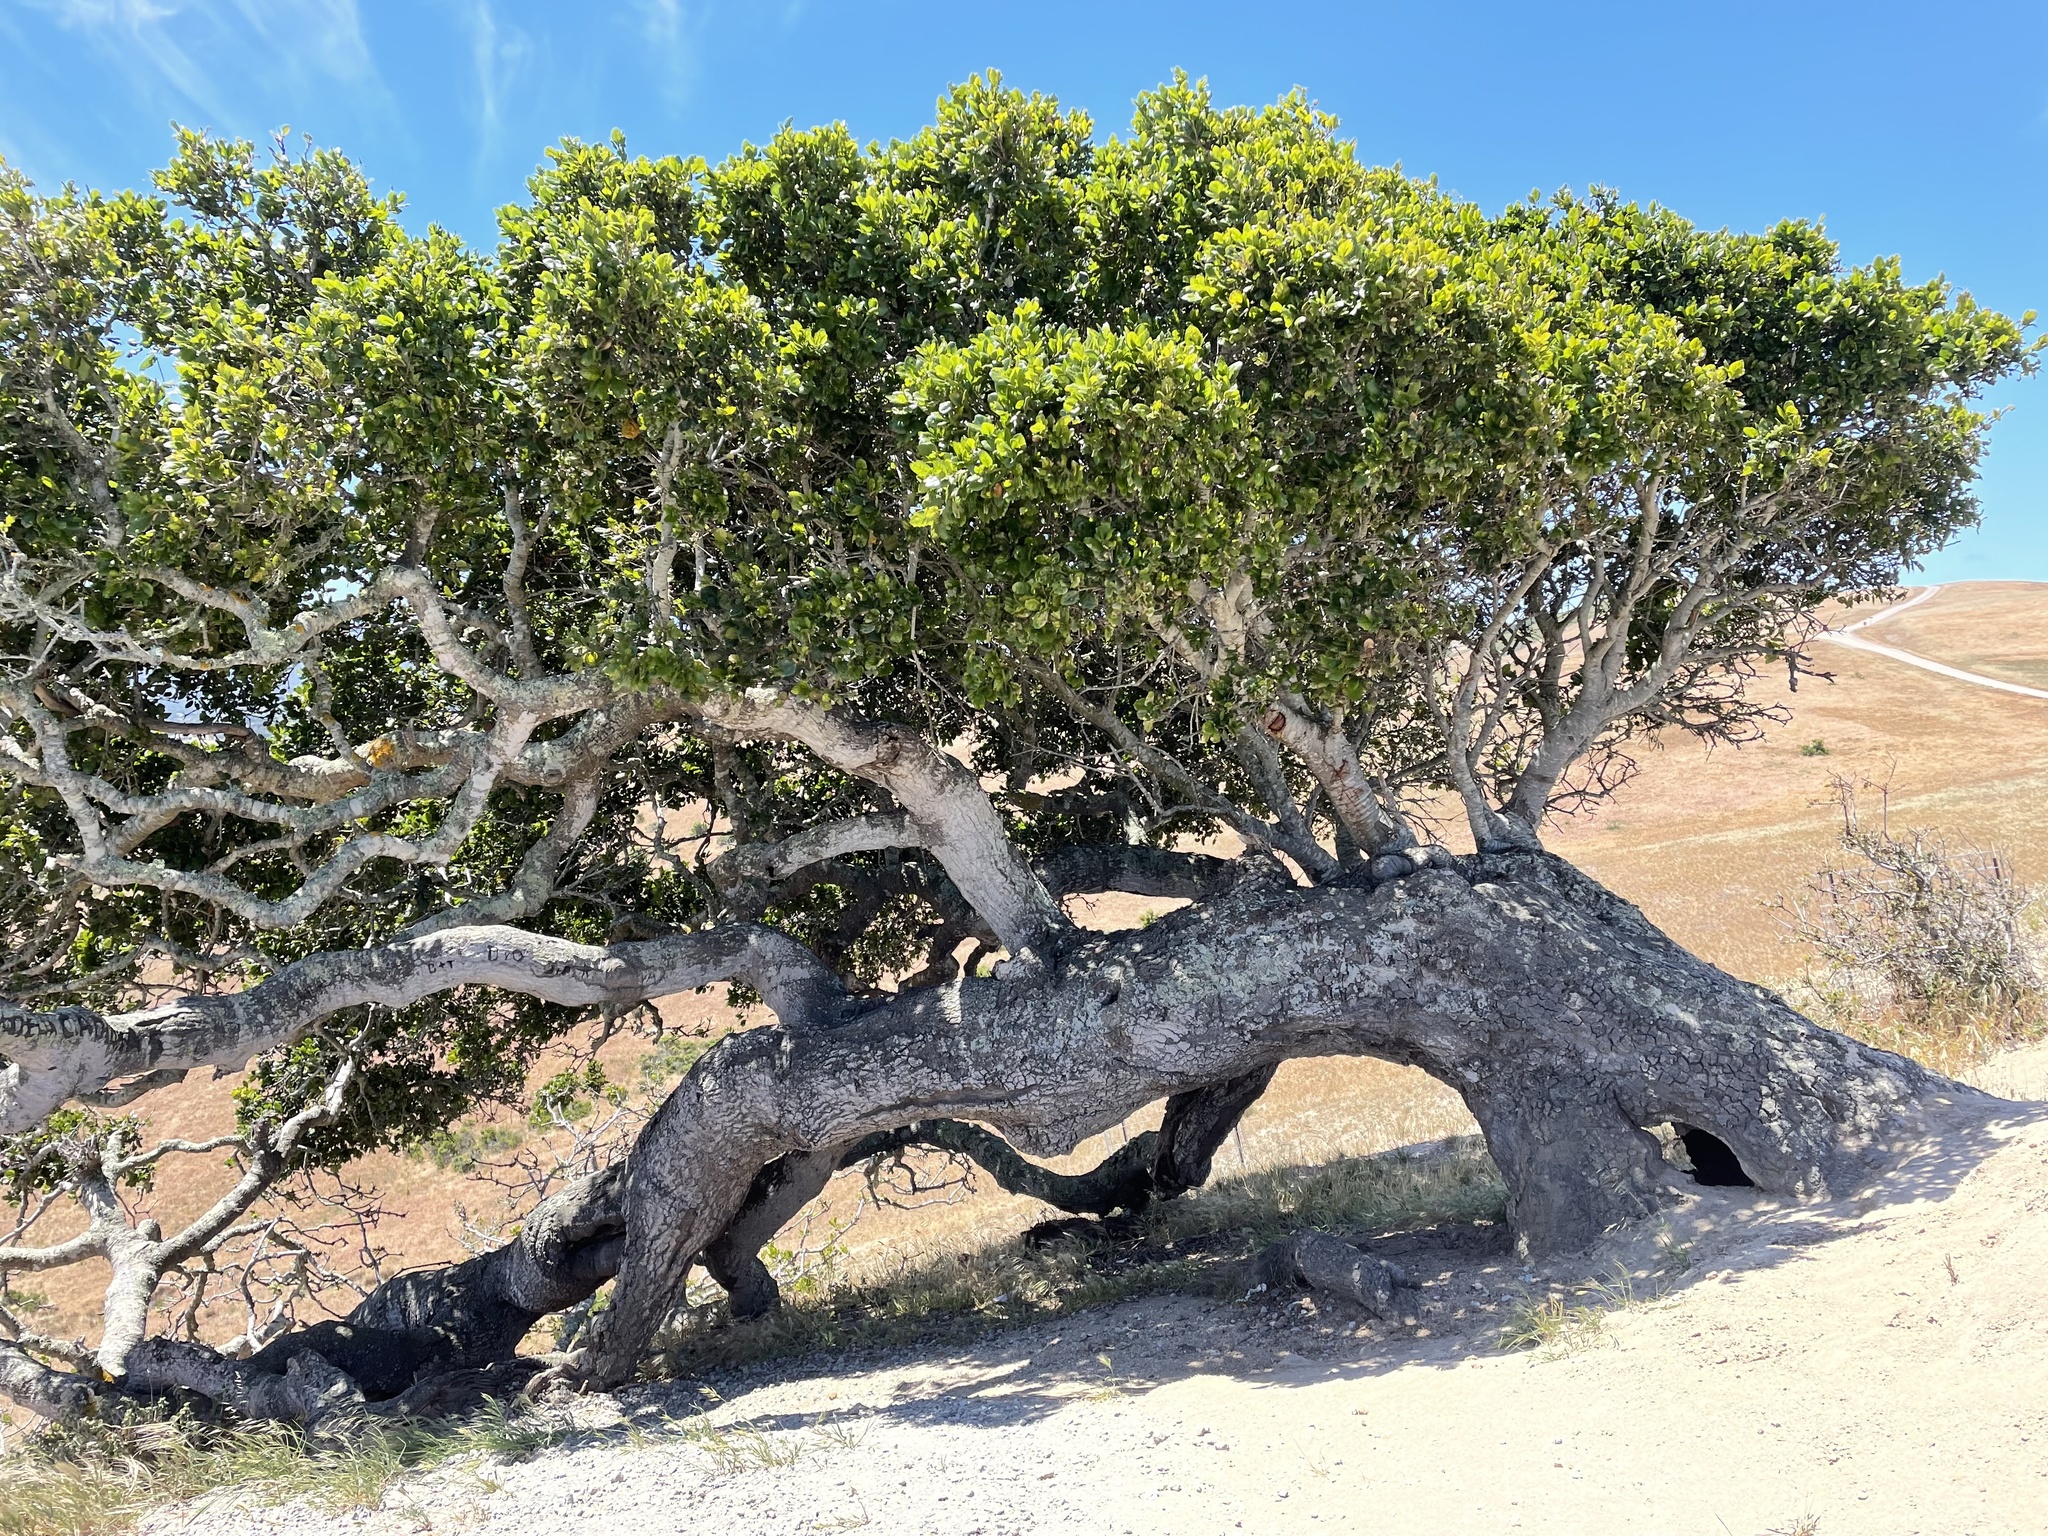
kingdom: Plantae
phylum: Tracheophyta
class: Magnoliopsida
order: Fagales
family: Fagaceae
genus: Quercus
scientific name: Quercus agrifolia
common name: California live oak
